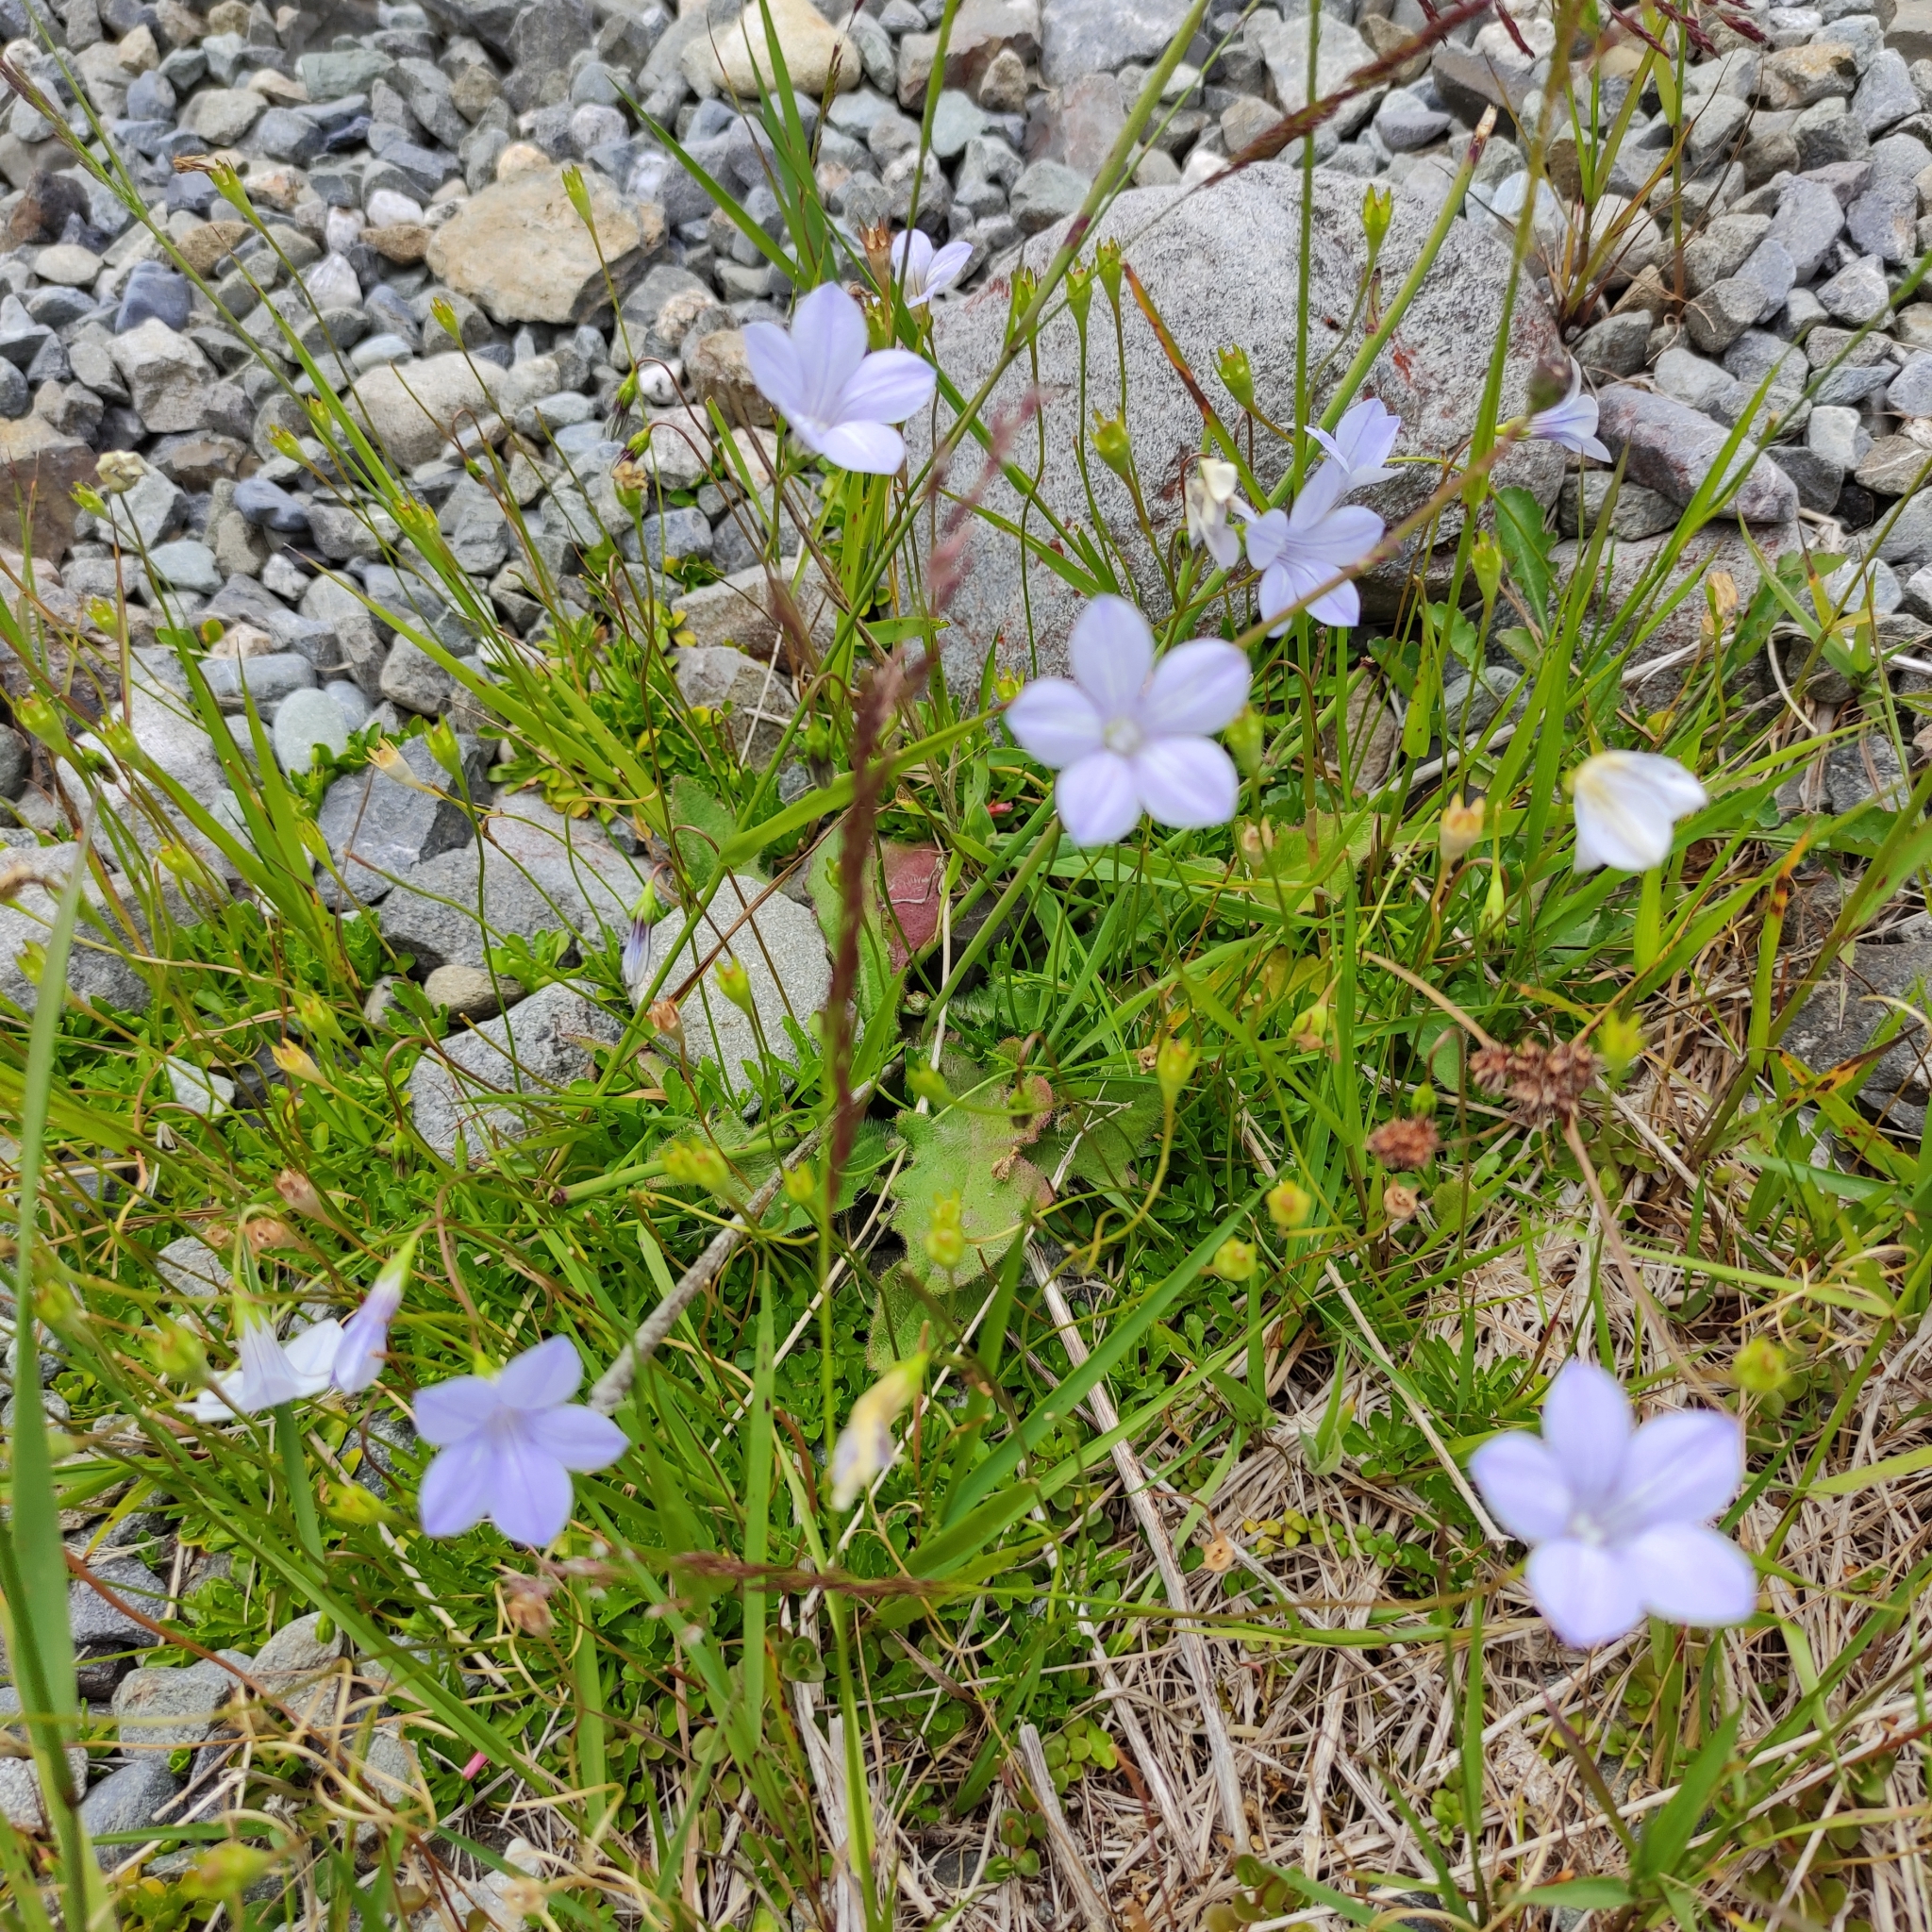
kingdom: Plantae
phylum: Tracheophyta
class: Magnoliopsida
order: Asterales
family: Campanulaceae
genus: Wahlenbergia
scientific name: Wahlenbergia albomarginata
